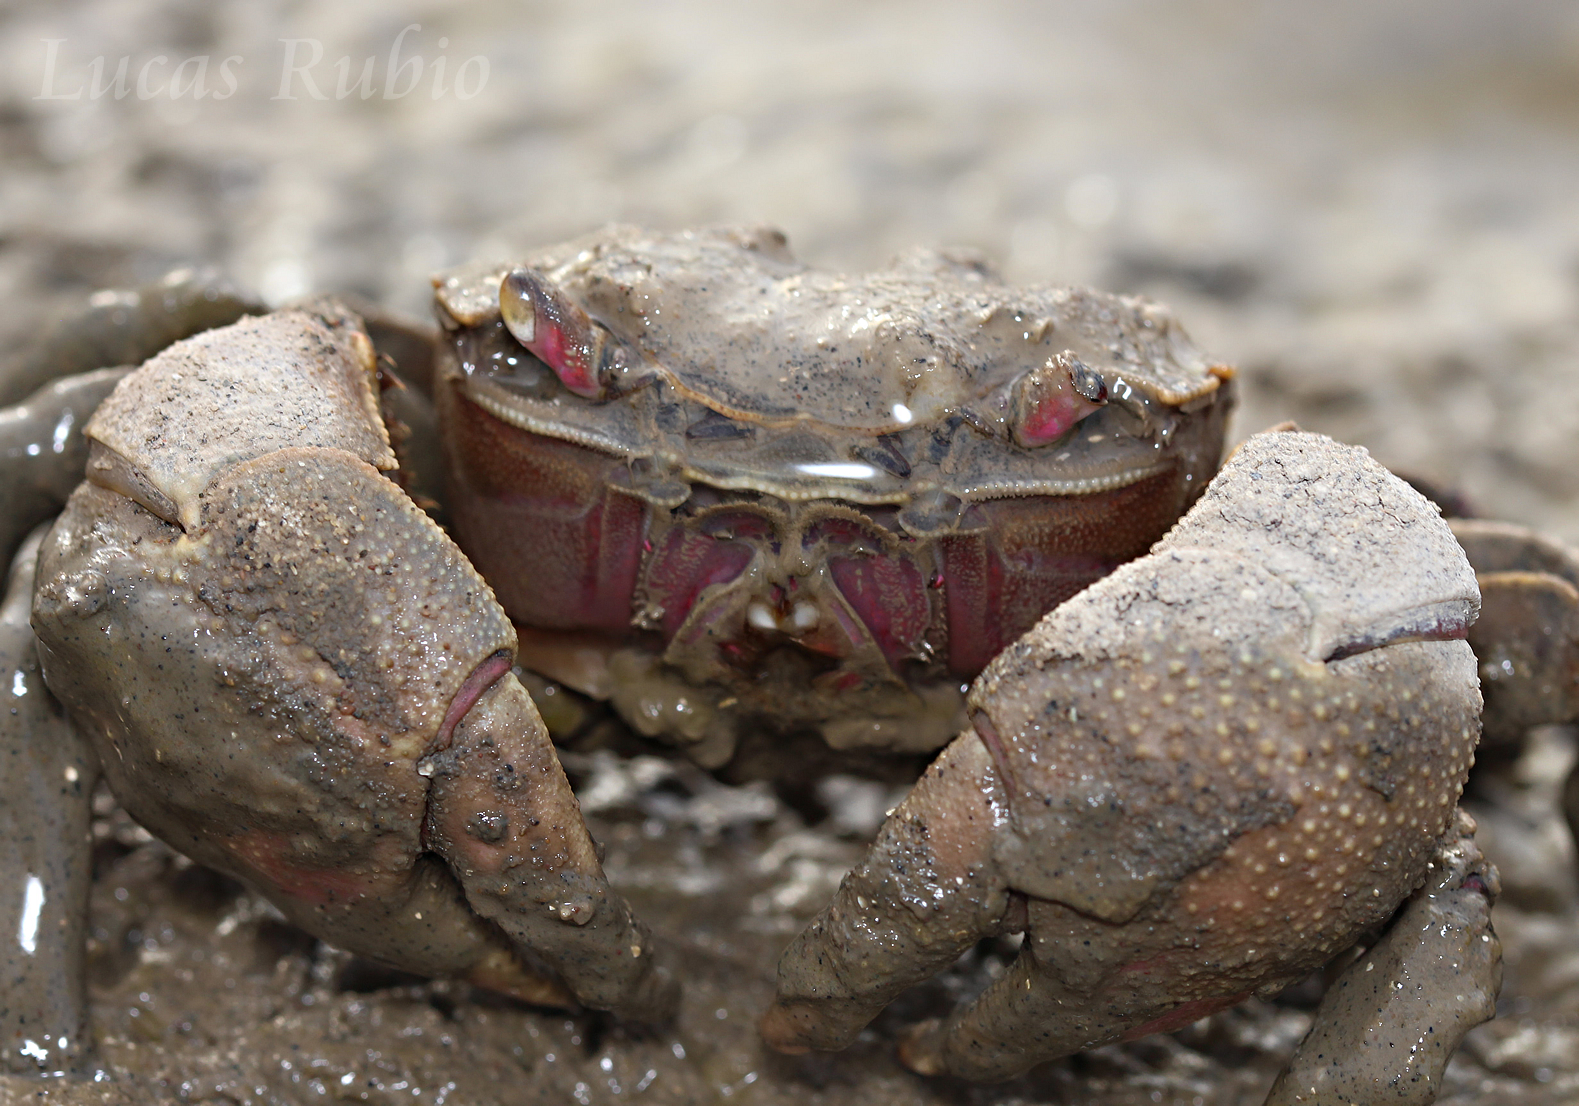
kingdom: Animalia
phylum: Arthropoda
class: Malacostraca
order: Decapoda
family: Varunidae
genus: Neohelice
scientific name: Neohelice granulata
